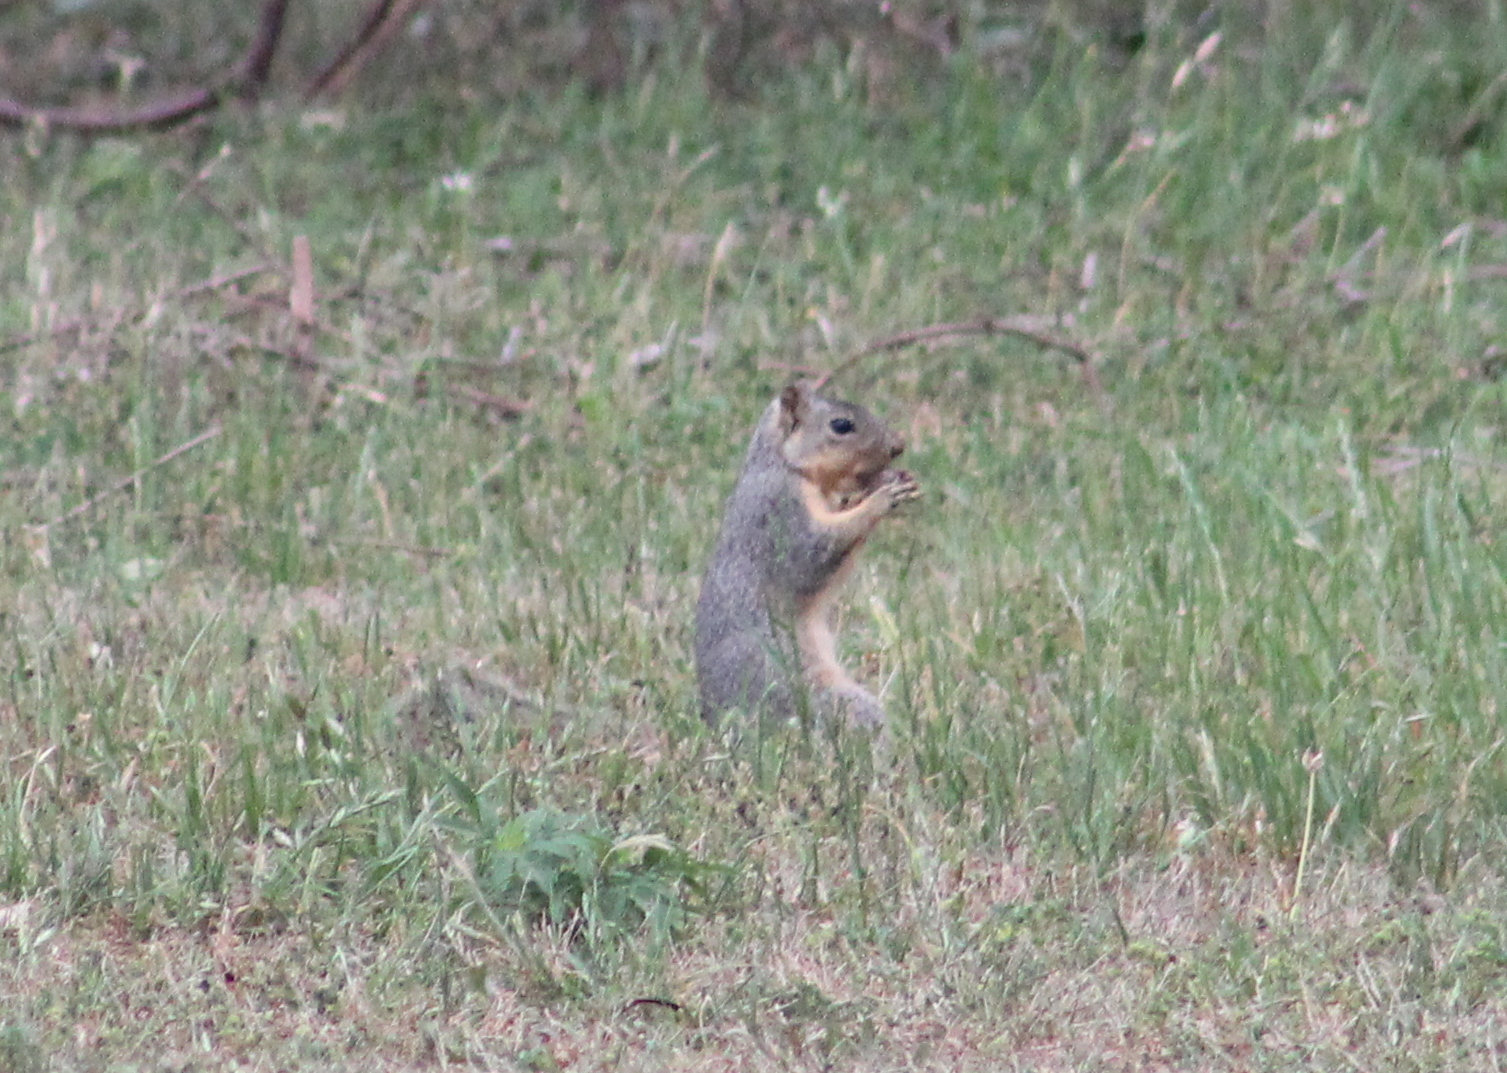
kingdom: Animalia
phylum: Chordata
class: Mammalia
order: Rodentia
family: Sciuridae
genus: Sciurus
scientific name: Sciurus niger
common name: Fox squirrel
